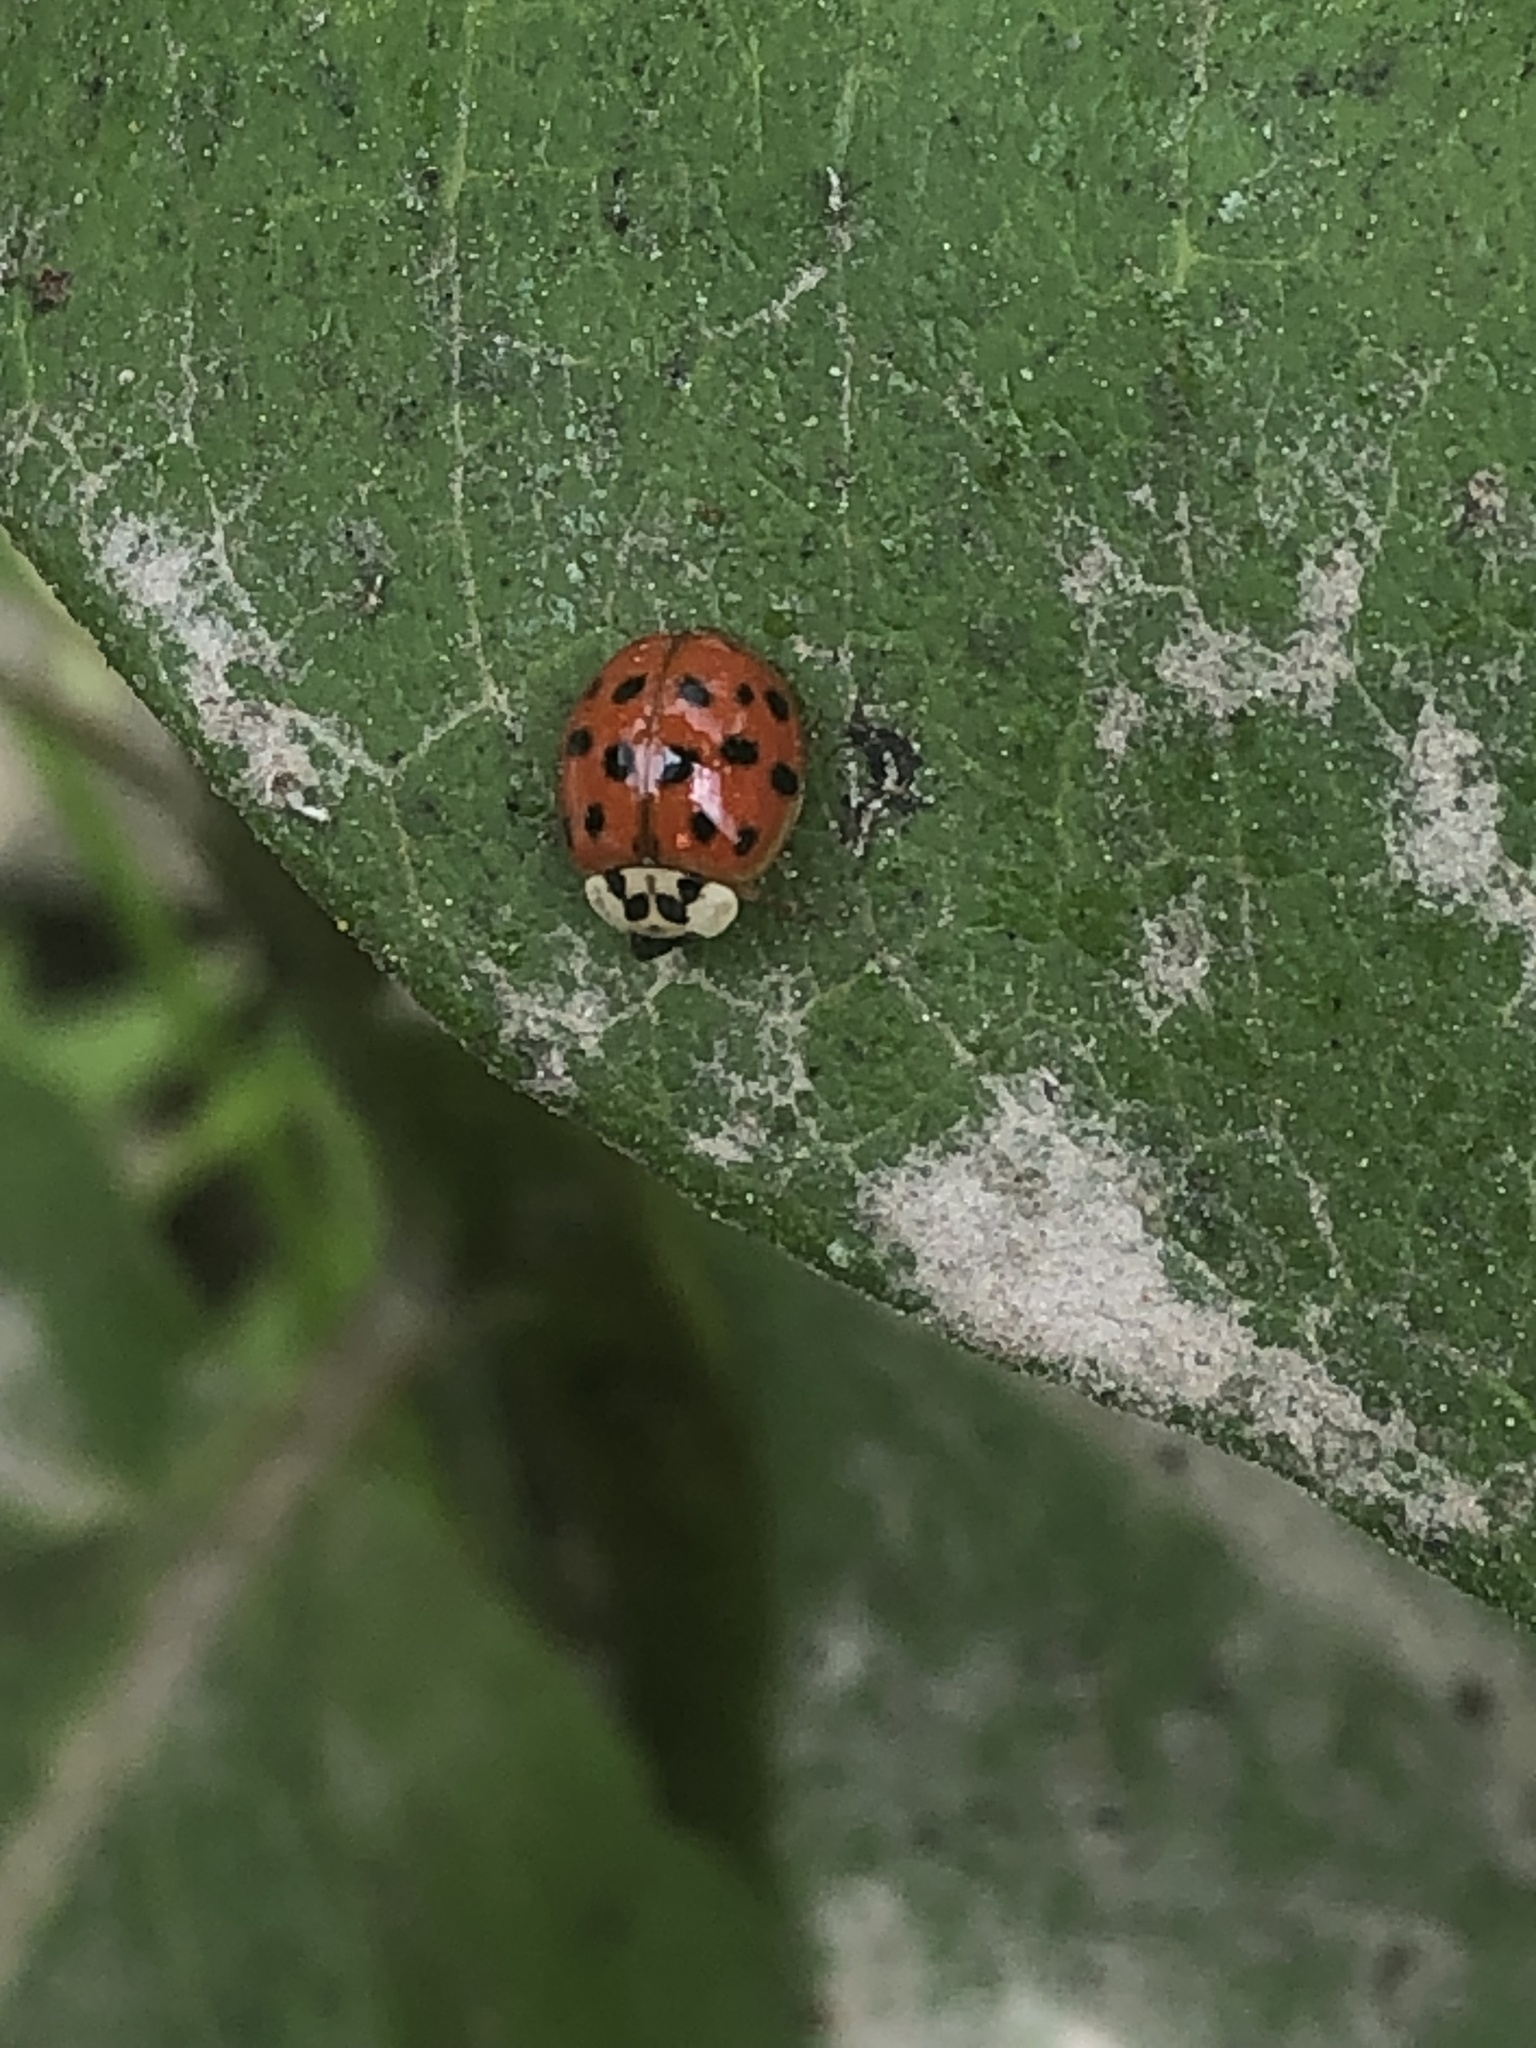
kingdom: Animalia
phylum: Arthropoda
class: Insecta
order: Coleoptera
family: Coccinellidae
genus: Harmonia
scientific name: Harmonia axyridis
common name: Harlequin ladybird
